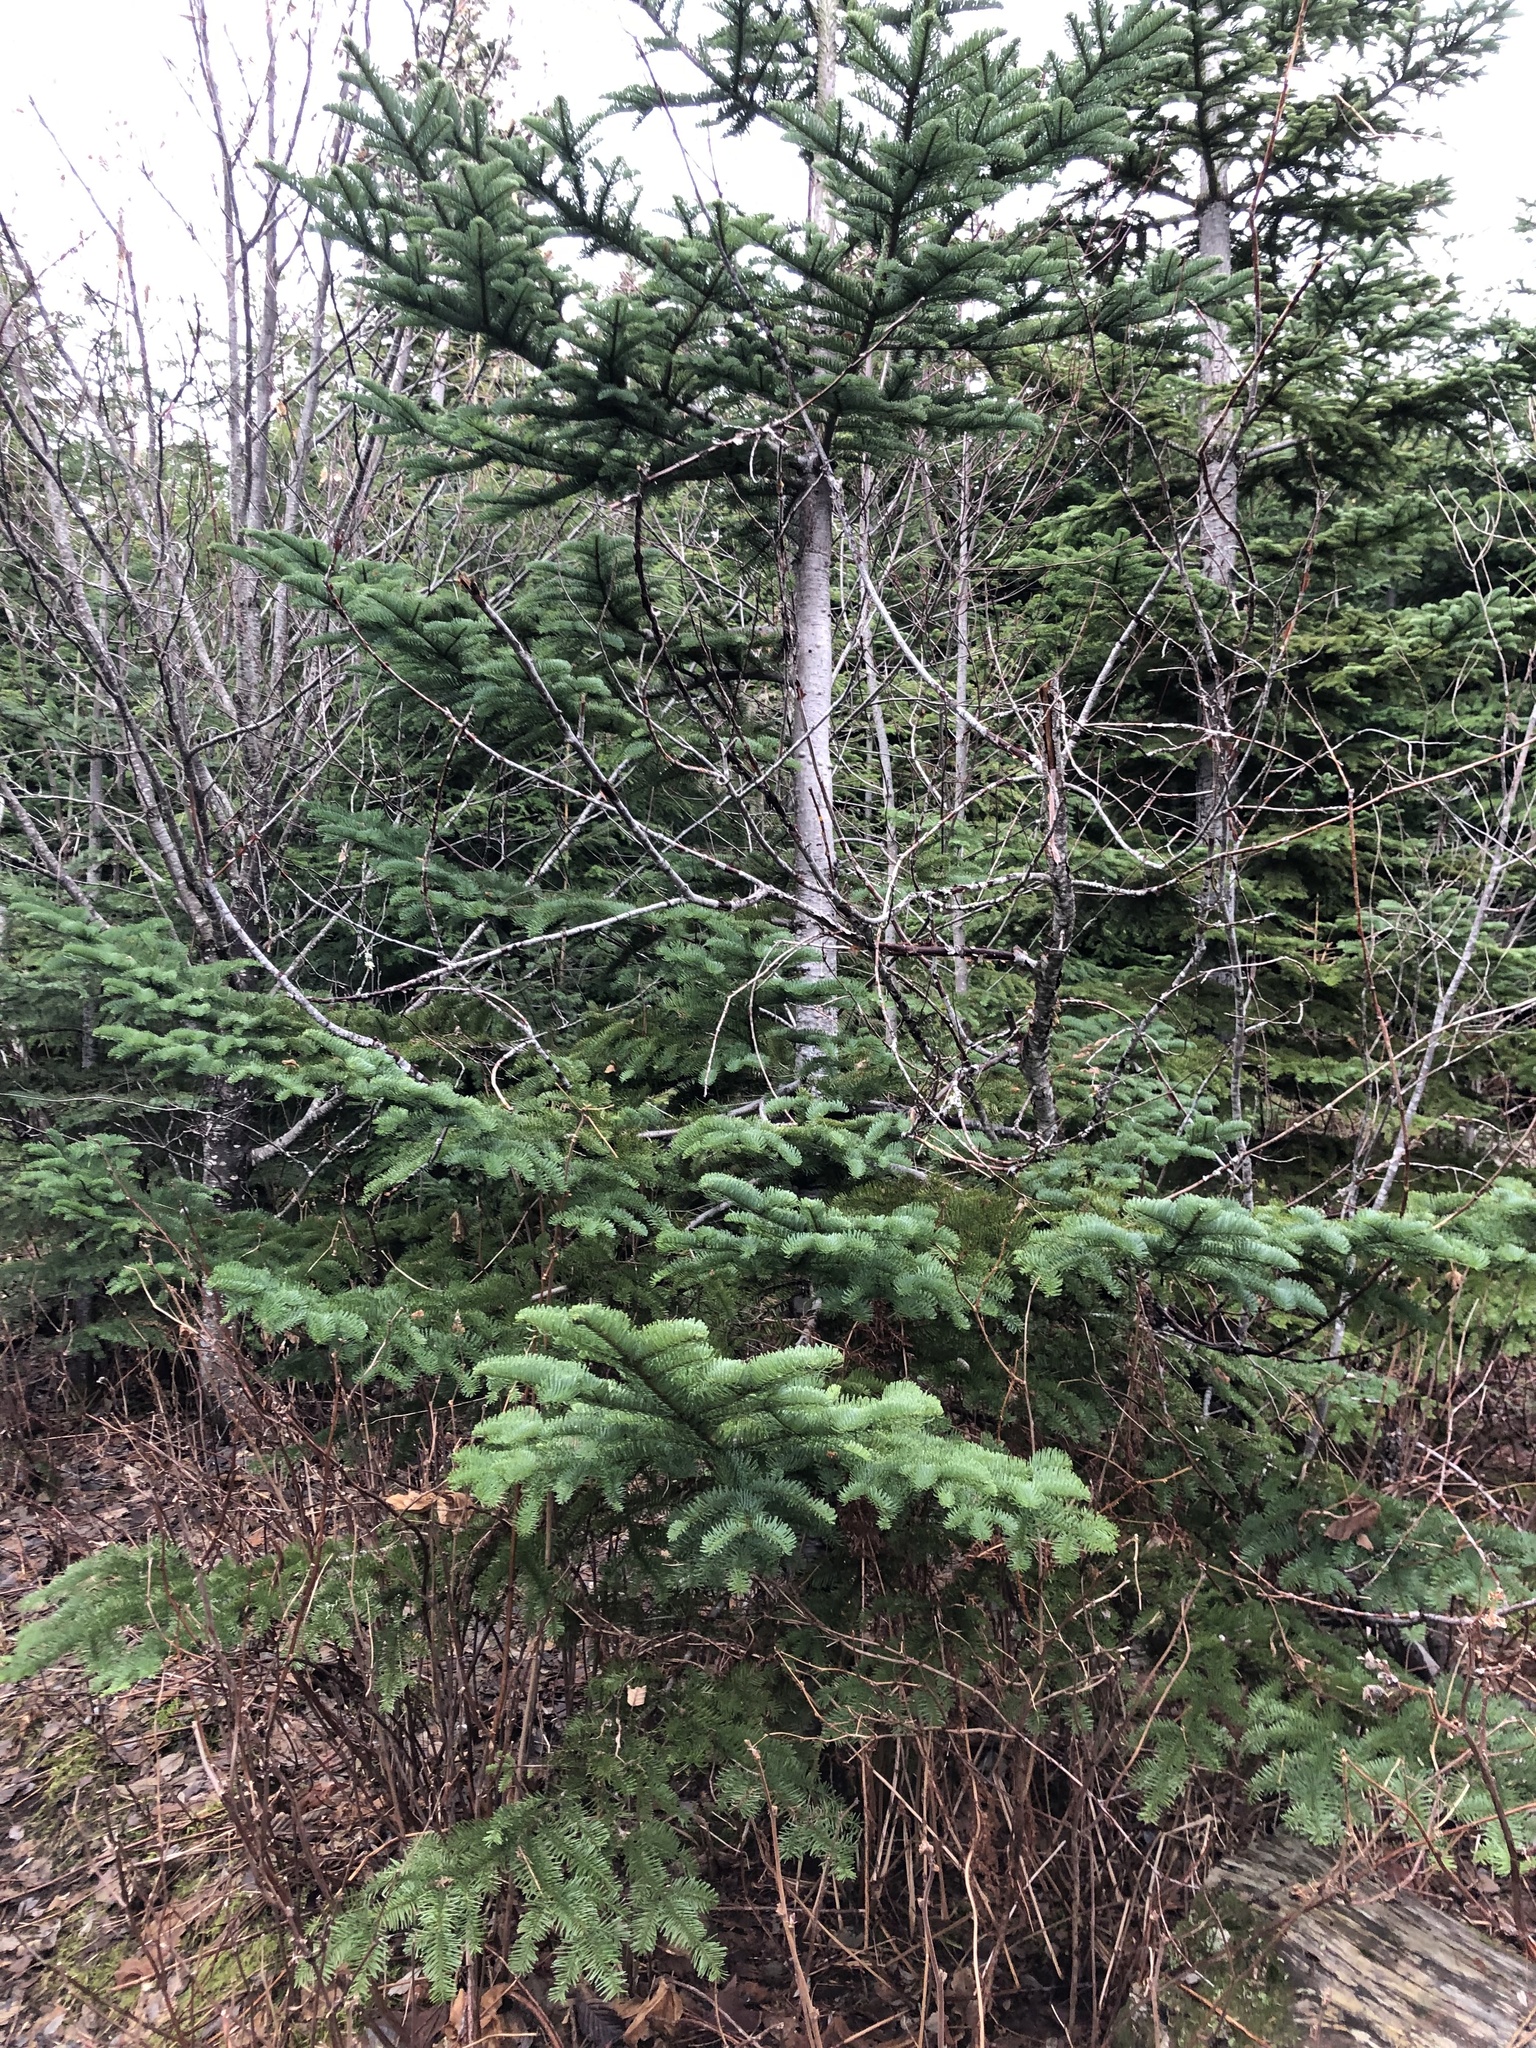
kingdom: Plantae
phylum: Tracheophyta
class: Pinopsida
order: Pinales
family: Pinaceae
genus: Abies
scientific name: Abies procera
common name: Noble fir
